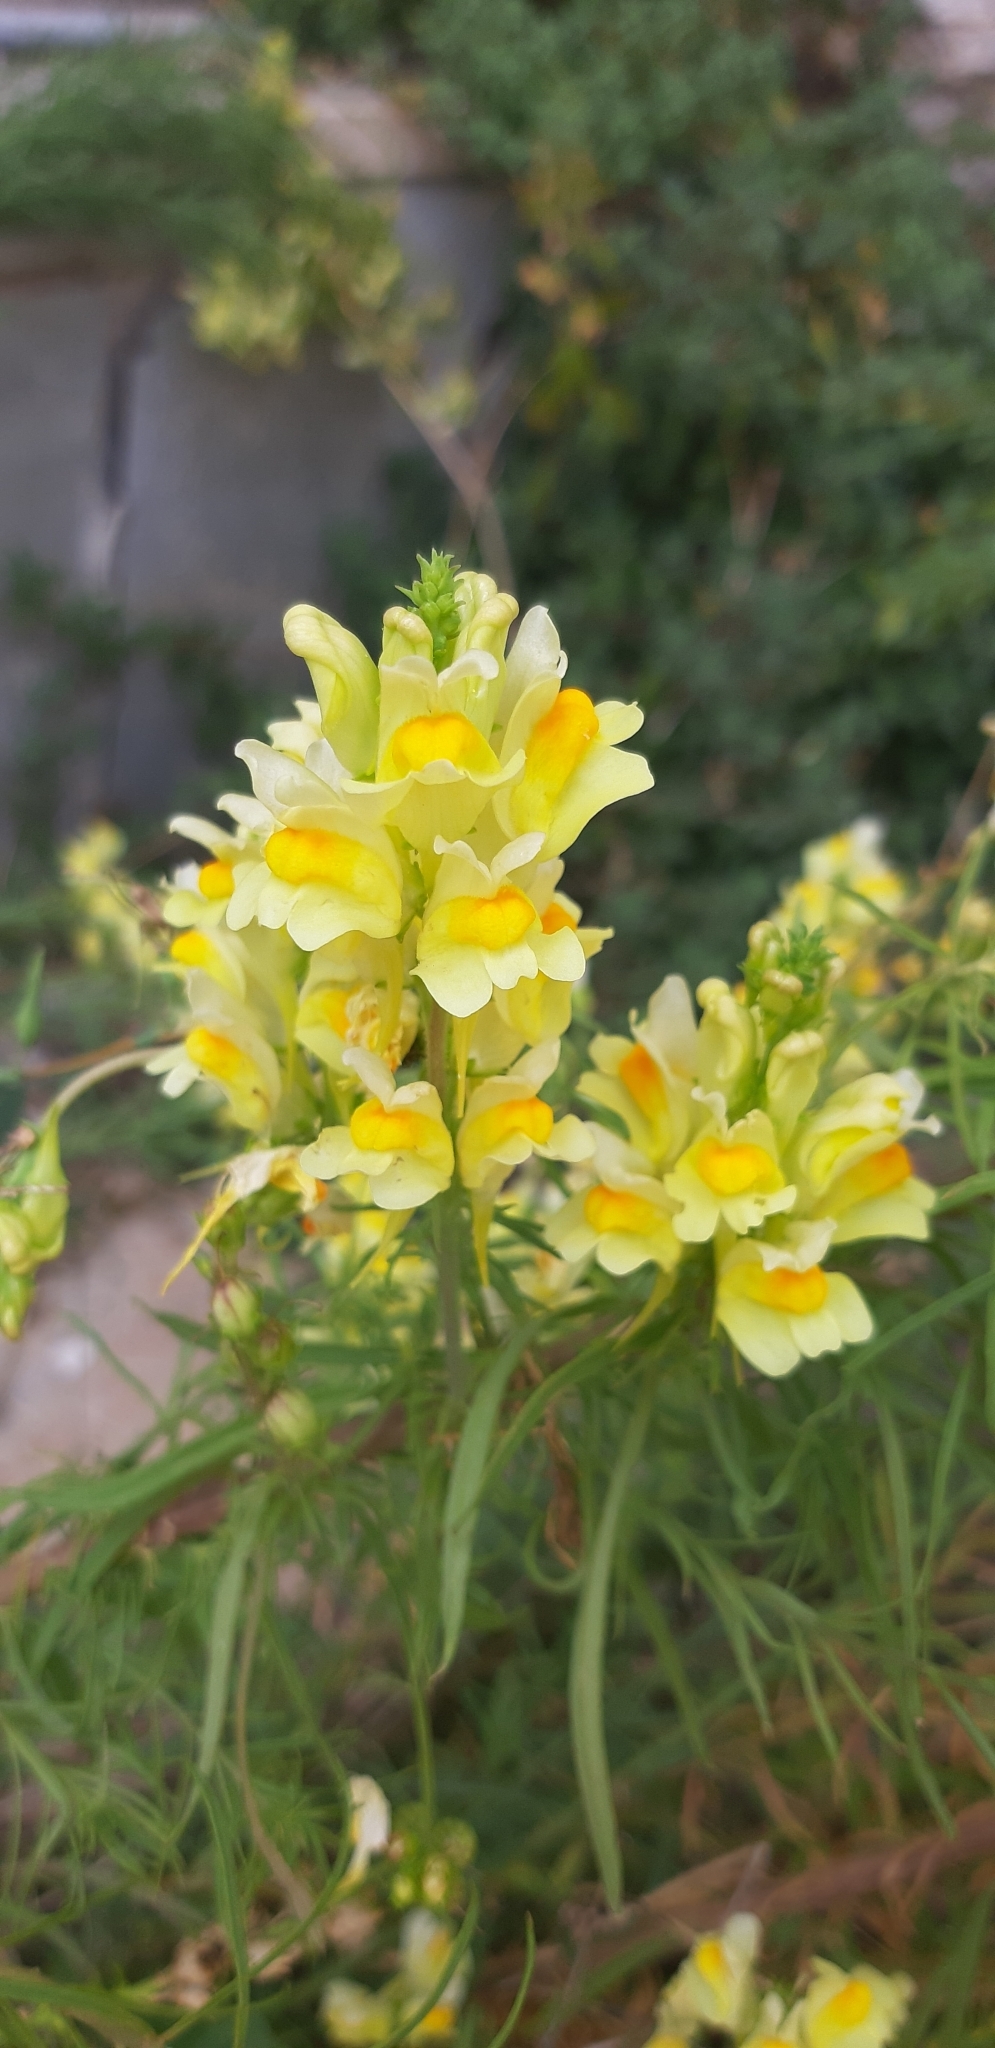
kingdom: Plantae
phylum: Tracheophyta
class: Magnoliopsida
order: Lamiales
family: Plantaginaceae
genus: Linaria
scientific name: Linaria vulgaris
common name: Butter and eggs
